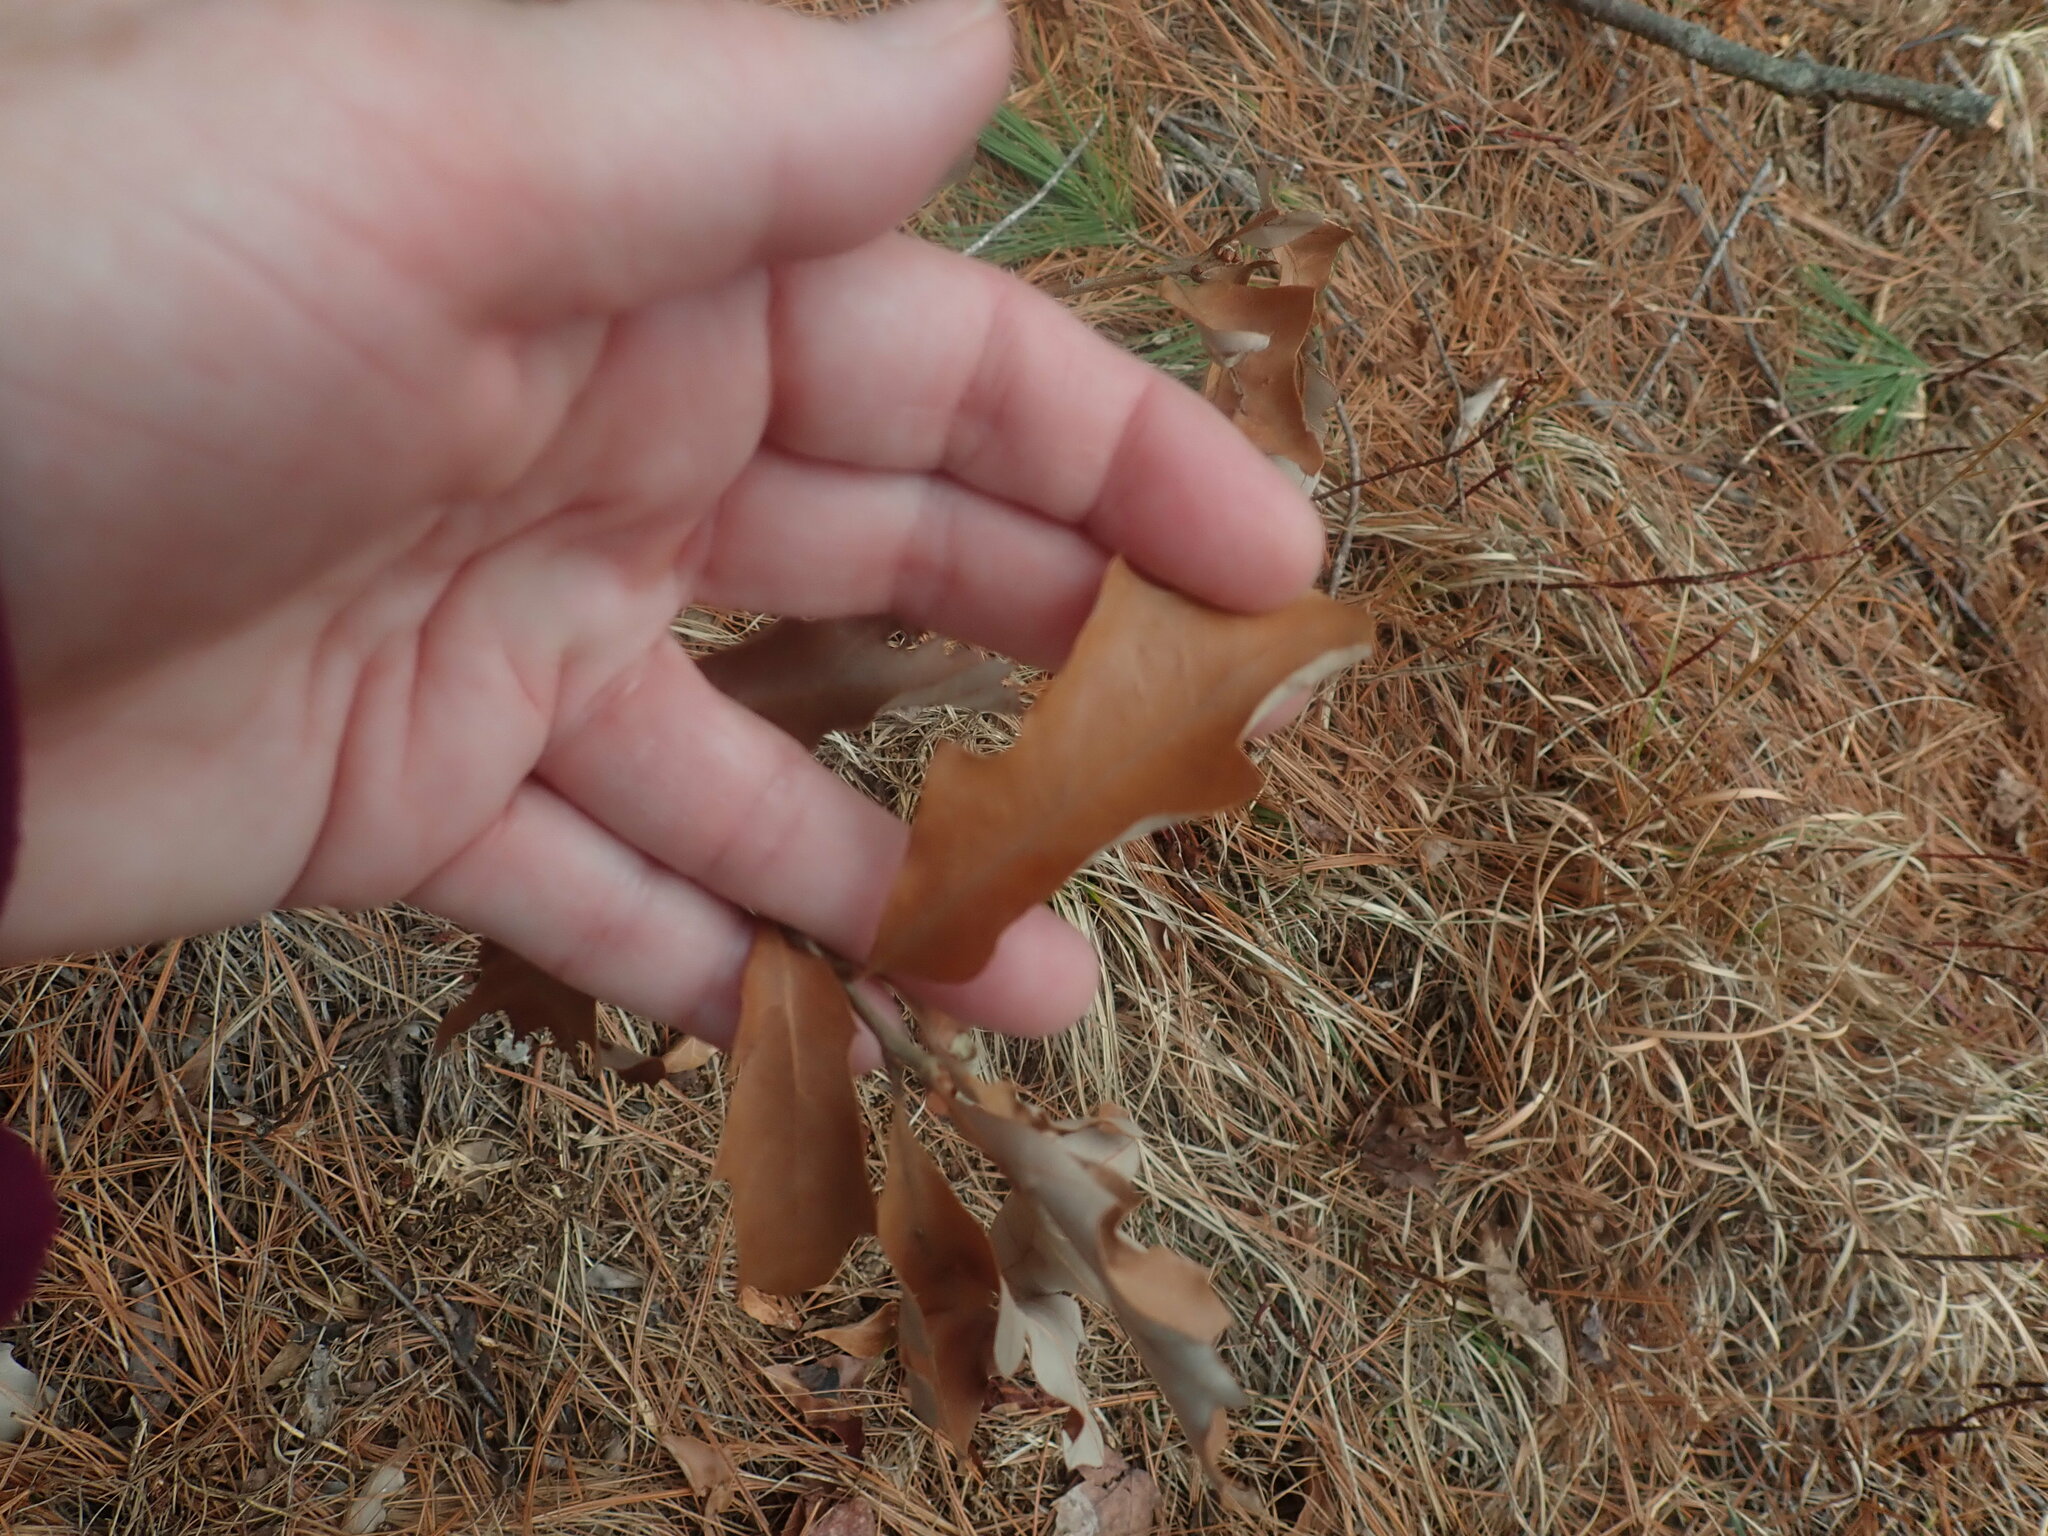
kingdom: Plantae
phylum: Tracheophyta
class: Magnoliopsida
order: Fagales
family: Fagaceae
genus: Quercus
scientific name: Quercus ilicifolia
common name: Bear oak
